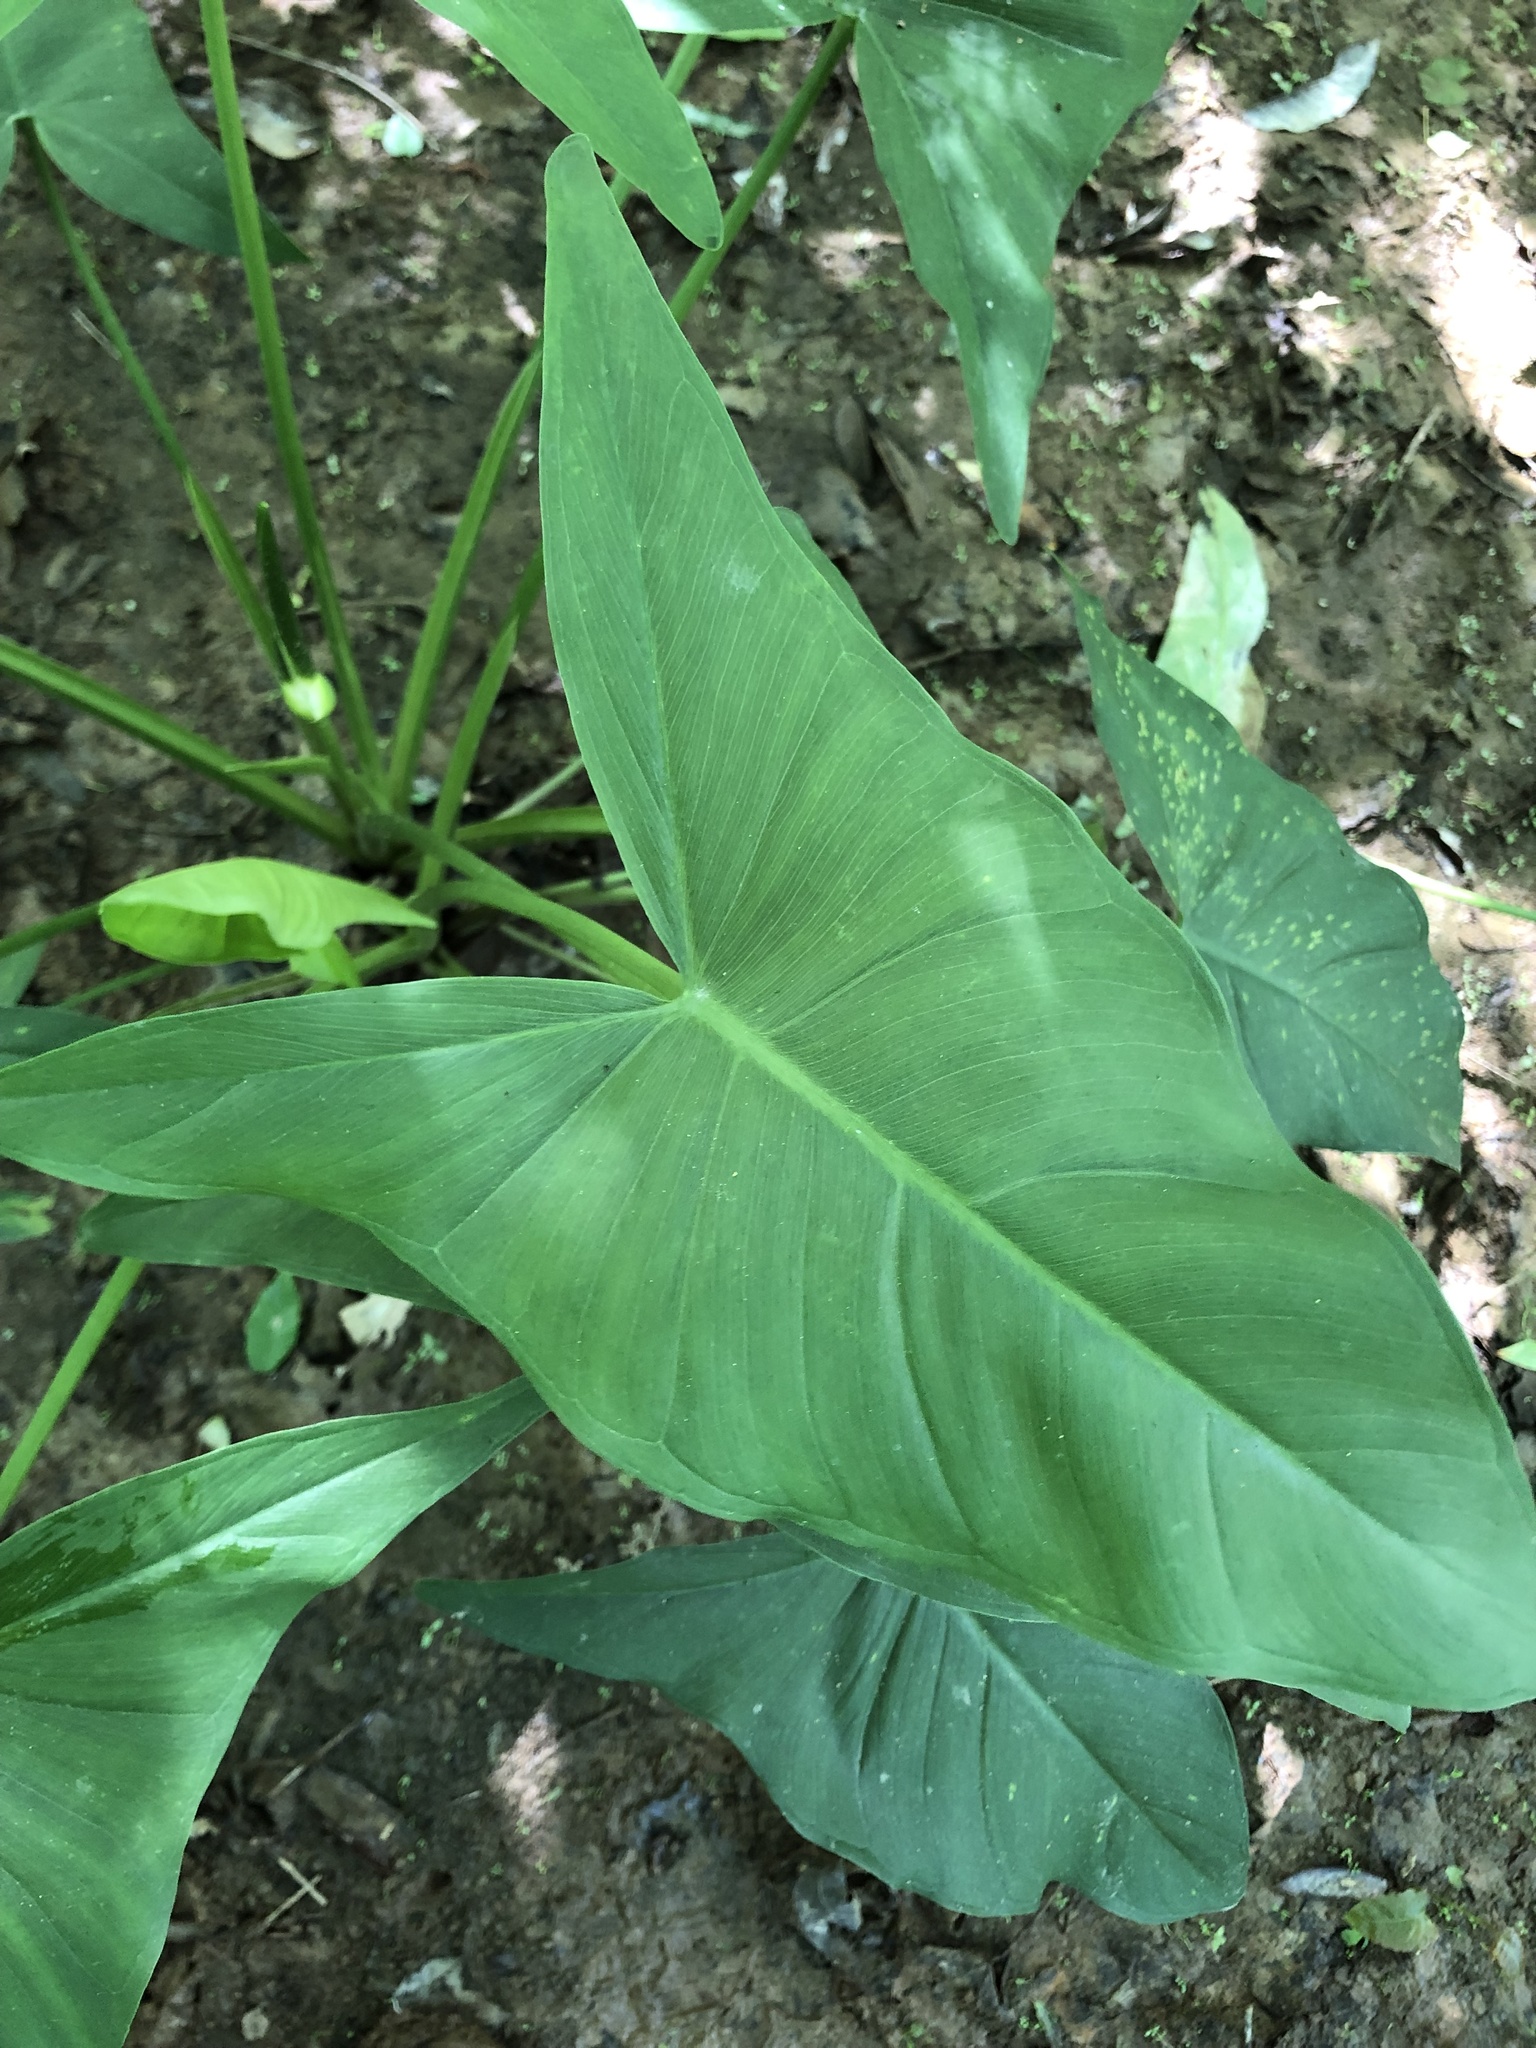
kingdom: Plantae
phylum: Tracheophyta
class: Liliopsida
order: Alismatales
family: Araceae
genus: Peltandra
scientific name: Peltandra virginica
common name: Arrow arum
